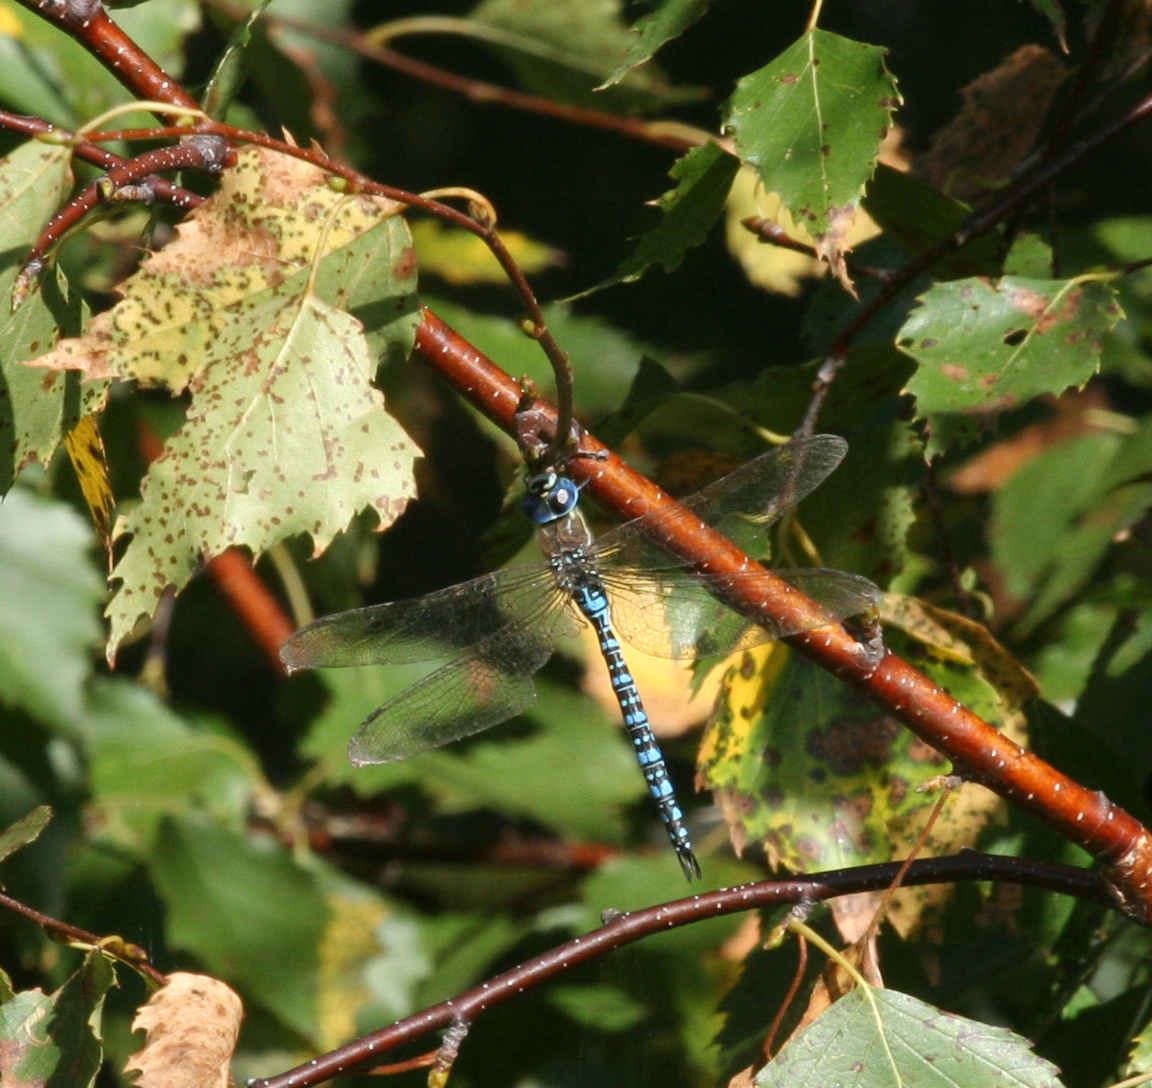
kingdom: Animalia
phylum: Arthropoda
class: Insecta
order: Odonata
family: Aeshnidae
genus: Aeshna
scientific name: Aeshna soneharai
